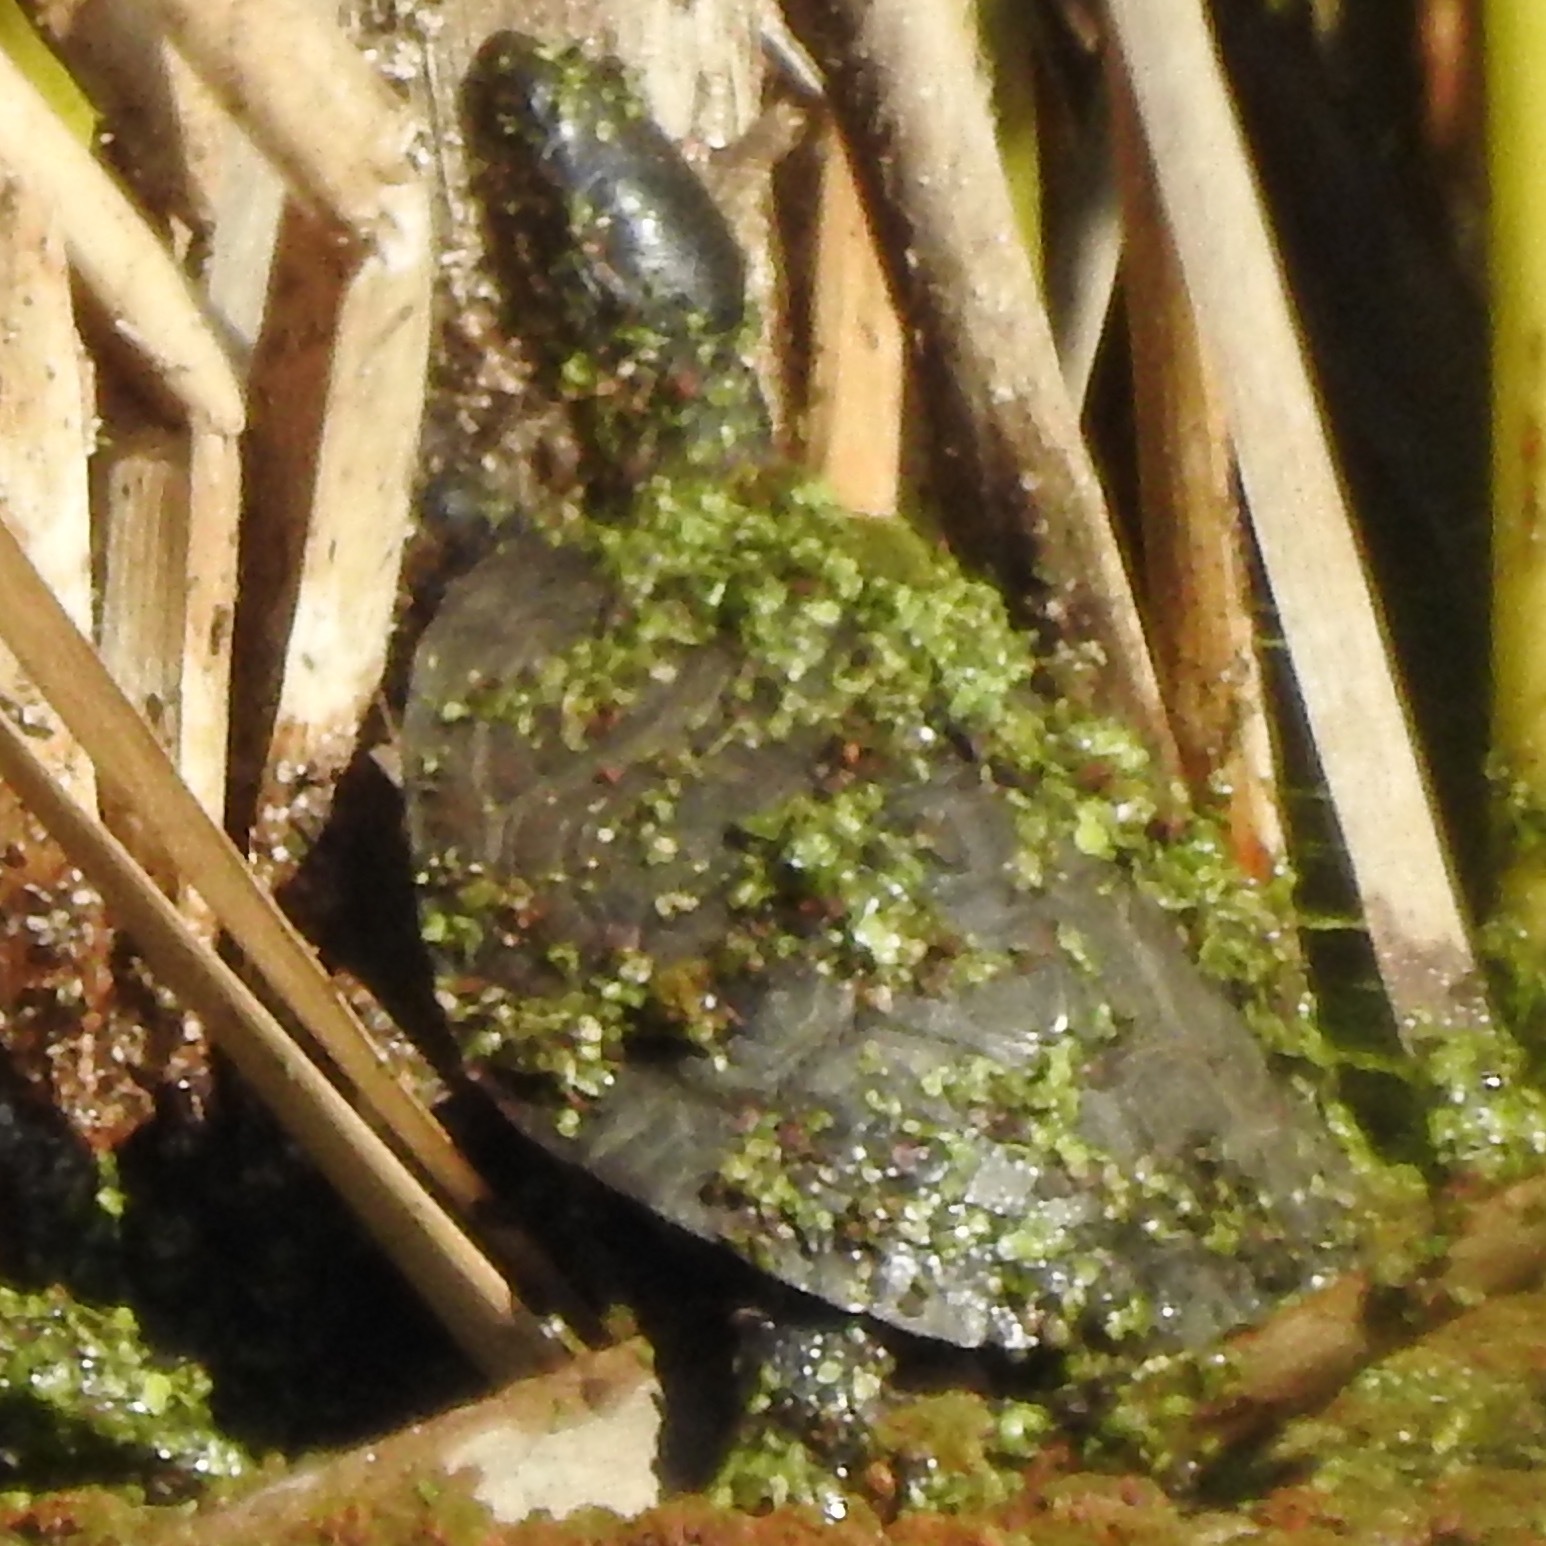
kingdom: Animalia
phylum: Chordata
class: Testudines
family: Emydidae
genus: Actinemys
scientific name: Actinemys marmorata
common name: Western pond turtle
